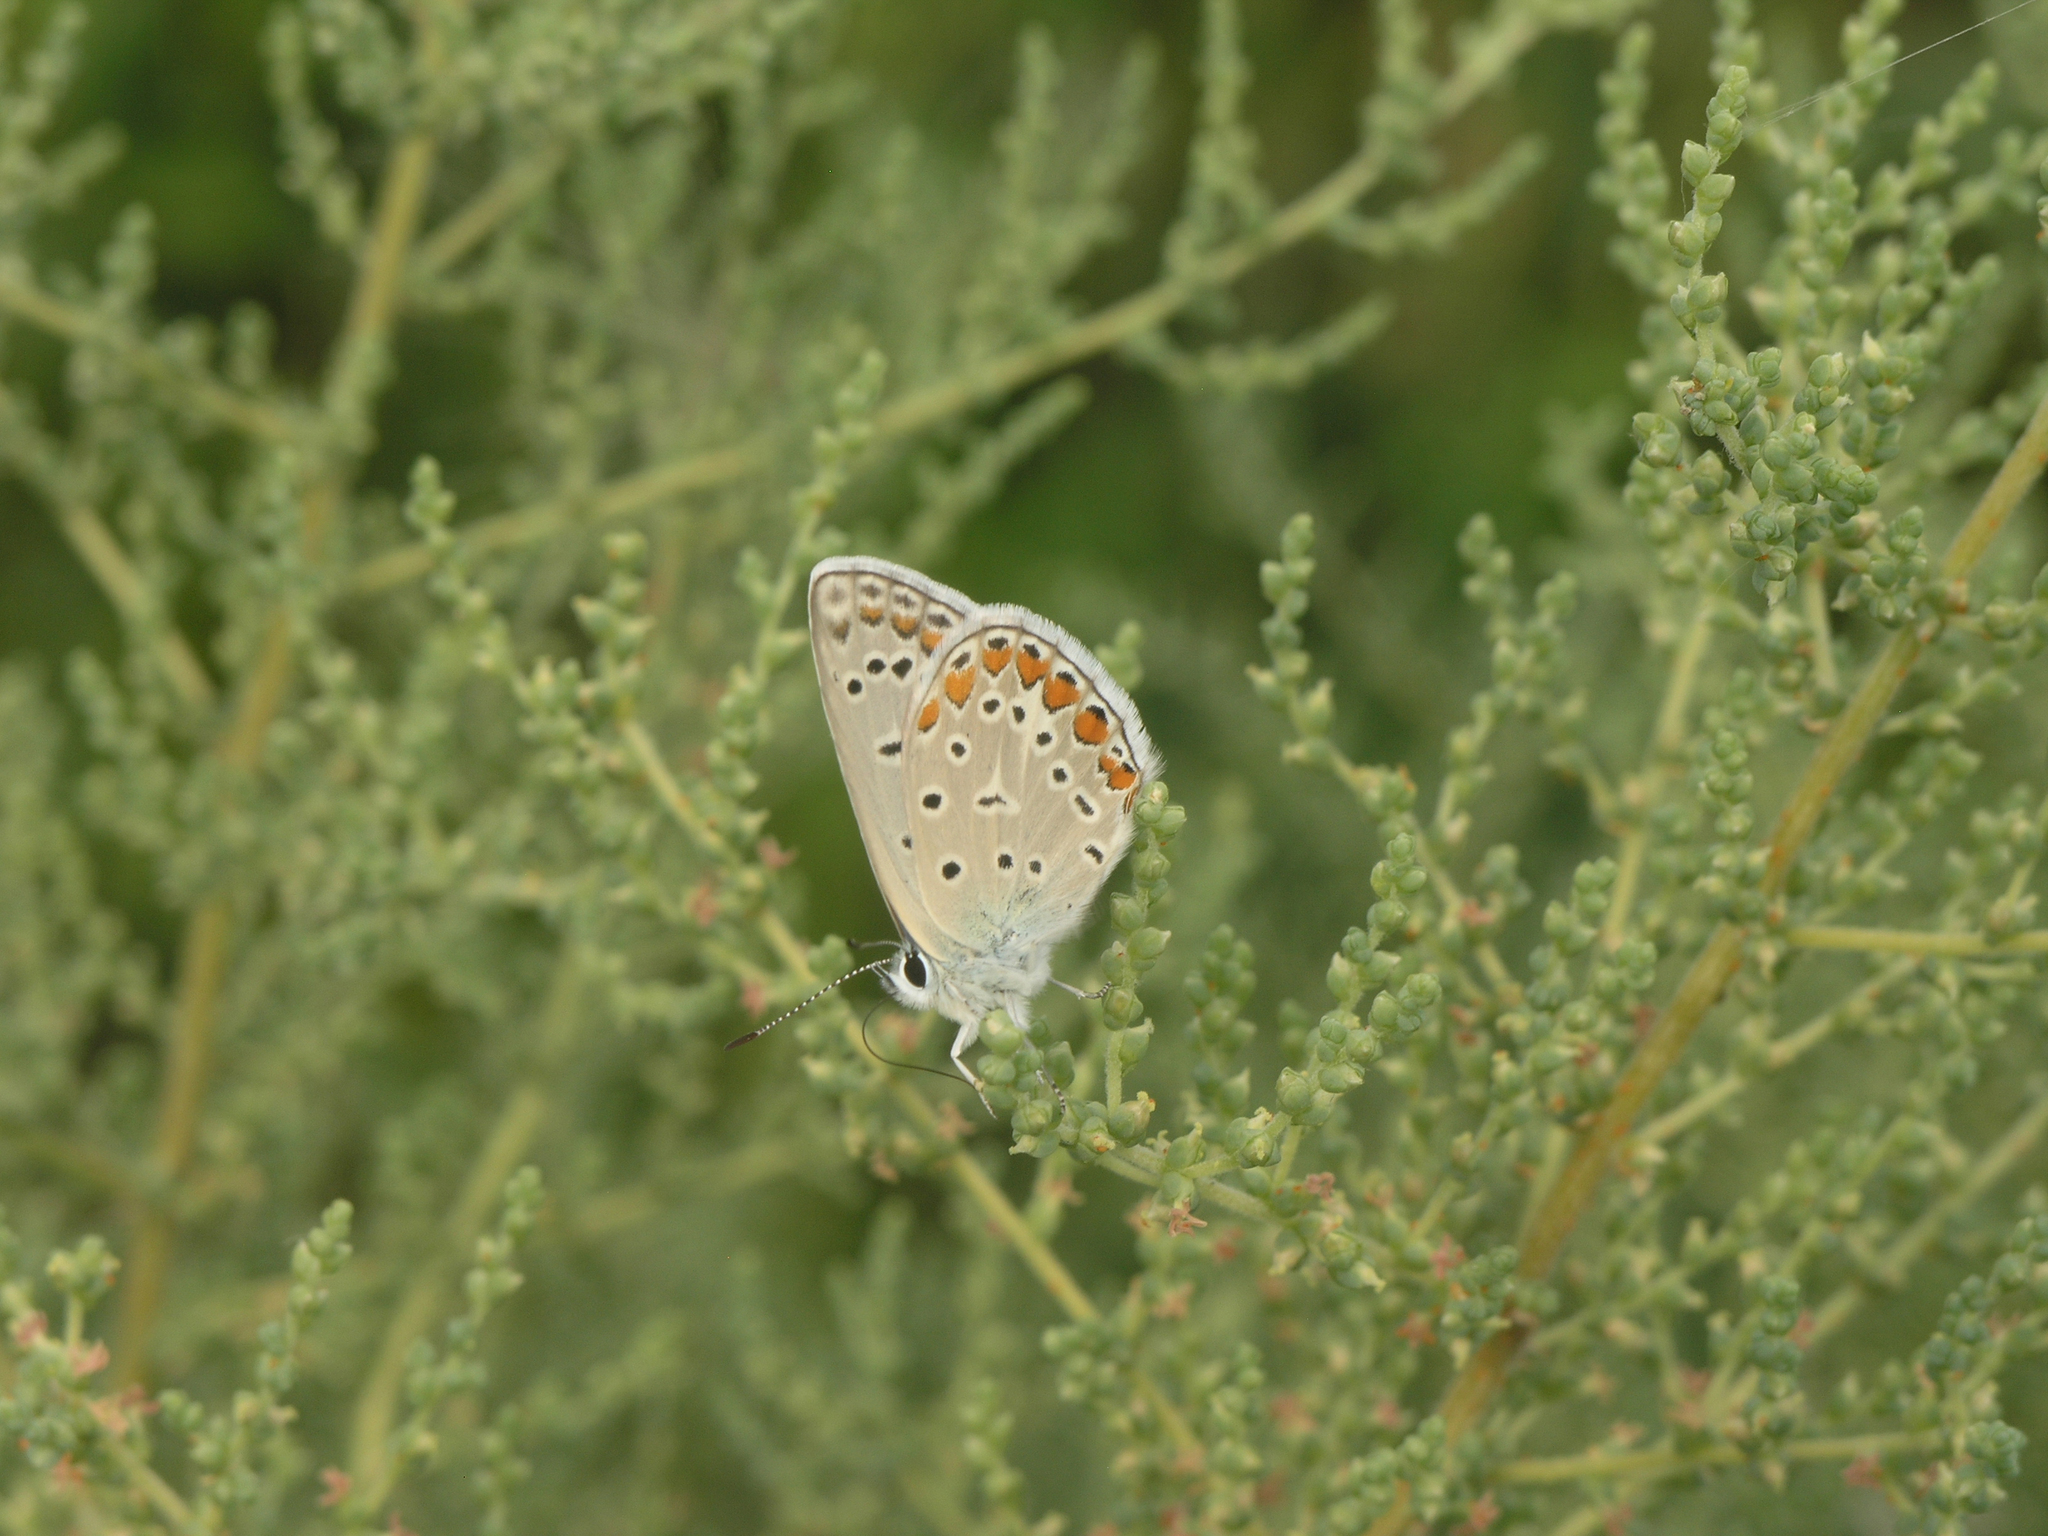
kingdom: Animalia
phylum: Arthropoda
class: Insecta
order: Lepidoptera
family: Lycaenidae
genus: Polyommatus
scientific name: Polyommatus icarus
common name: Common blue
